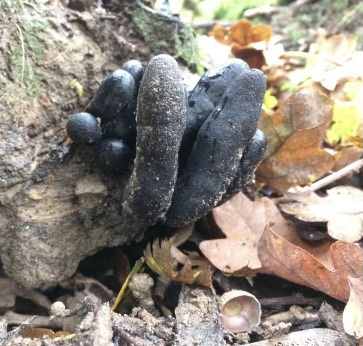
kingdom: Fungi
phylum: Ascomycota
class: Sordariomycetes
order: Xylariales
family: Xylariaceae
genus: Xylaria
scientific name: Xylaria polymorpha
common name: Dead man's fingers
